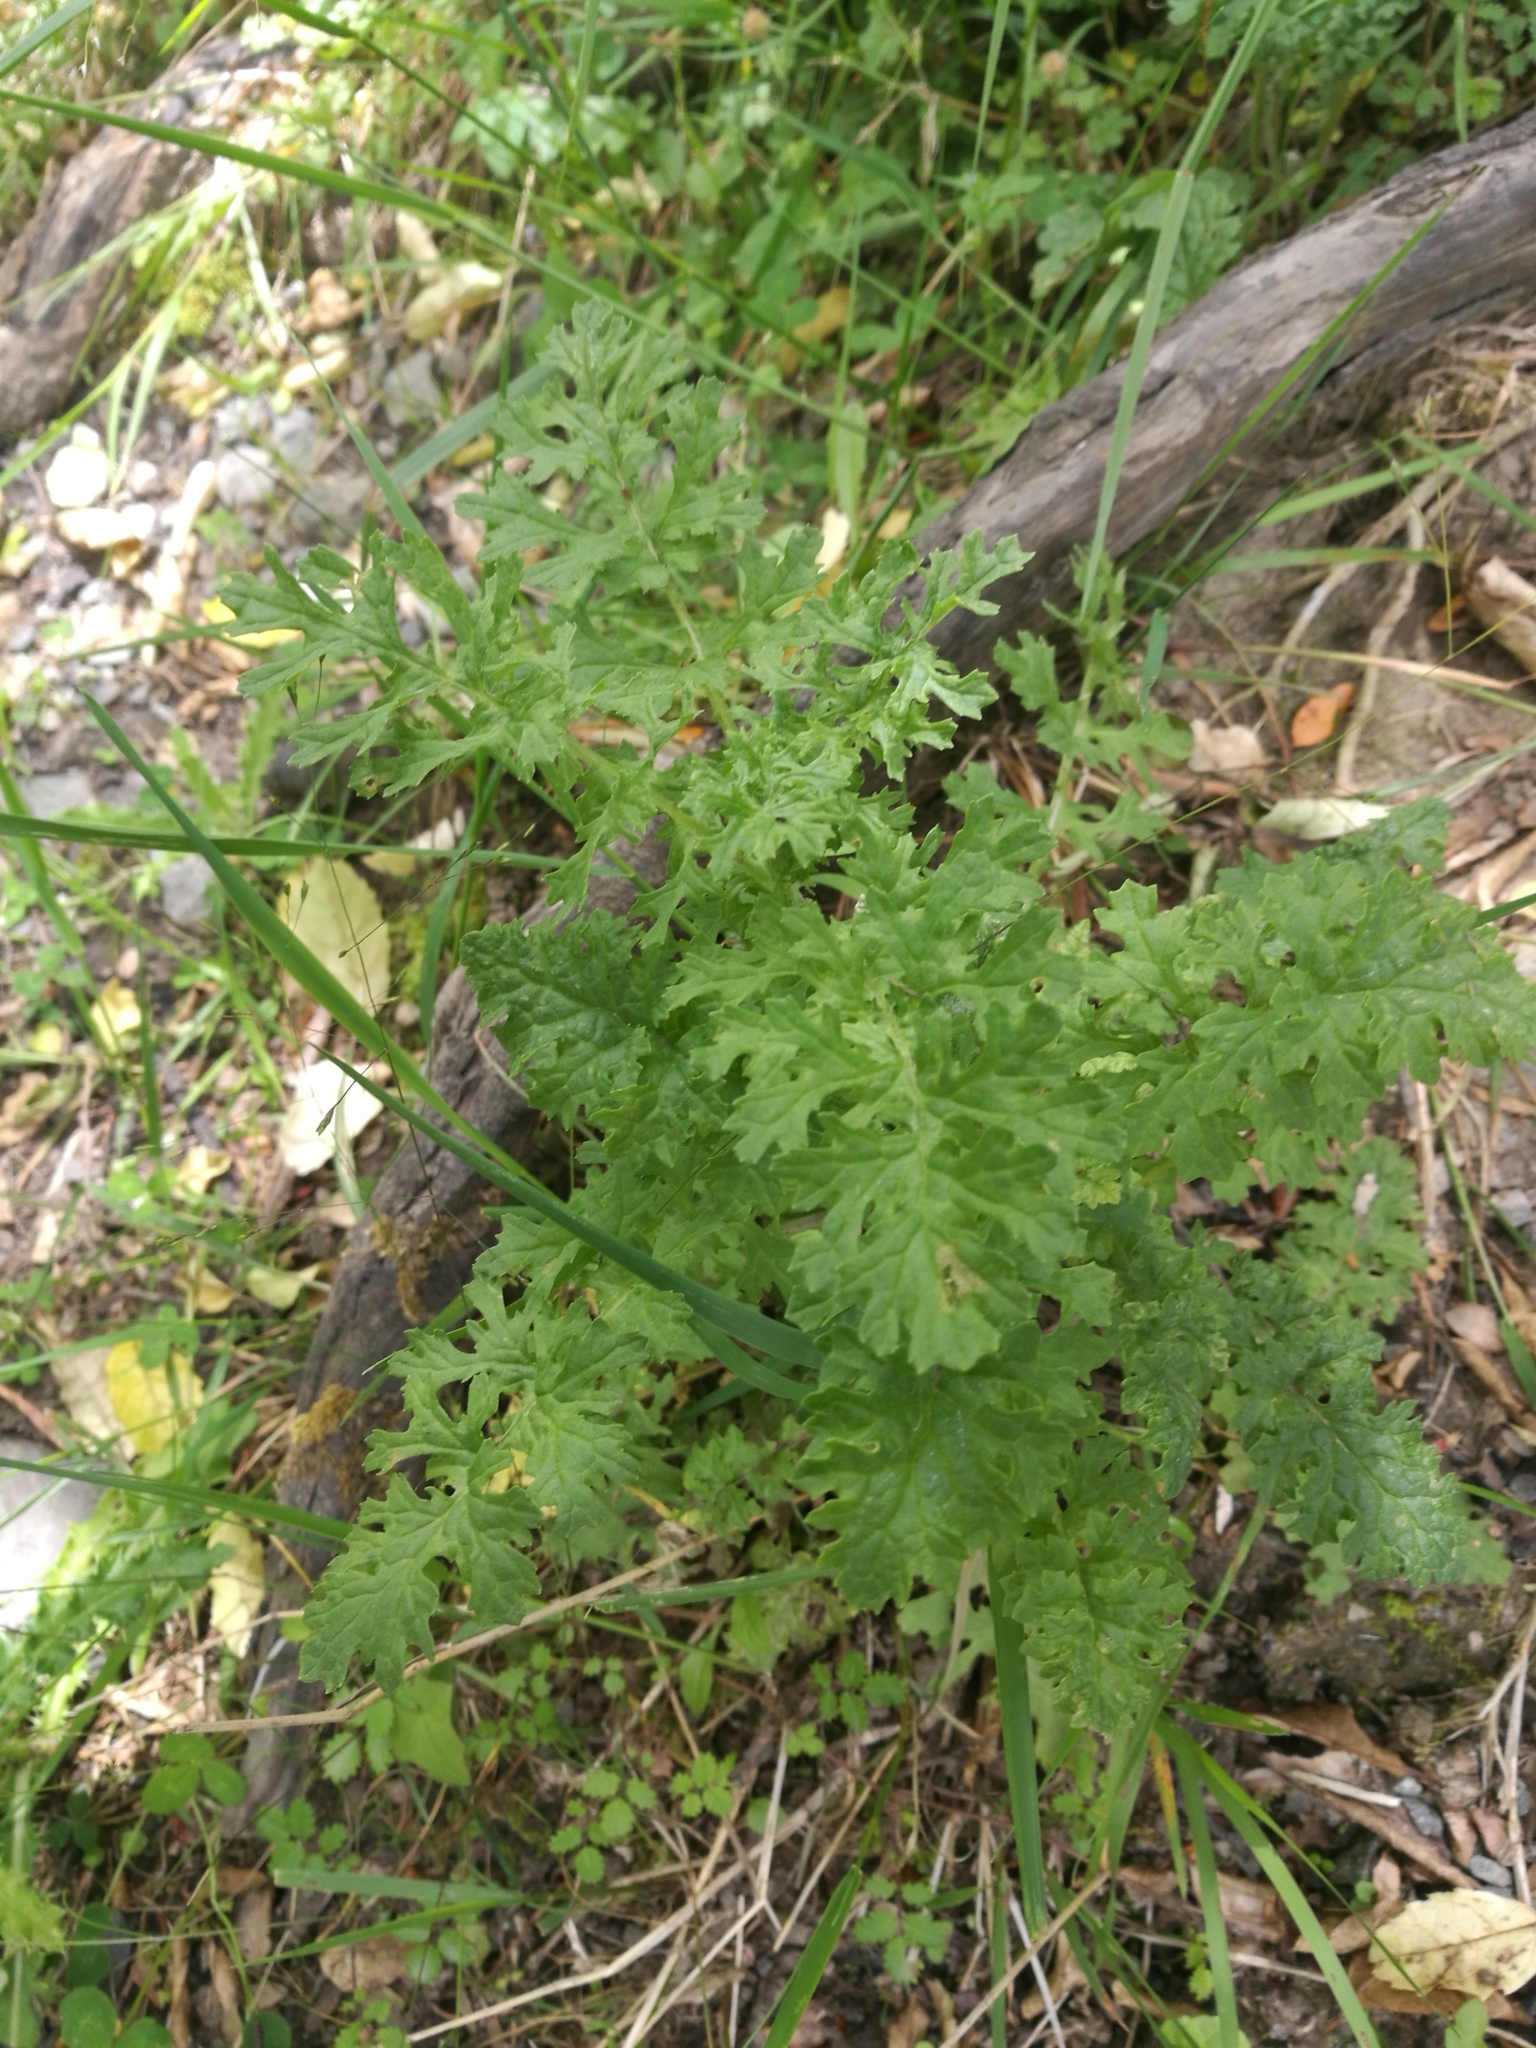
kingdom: Plantae
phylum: Tracheophyta
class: Magnoliopsida
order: Asterales
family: Asteraceae
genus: Jacobaea
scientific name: Jacobaea vulgaris
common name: Stinking willie
